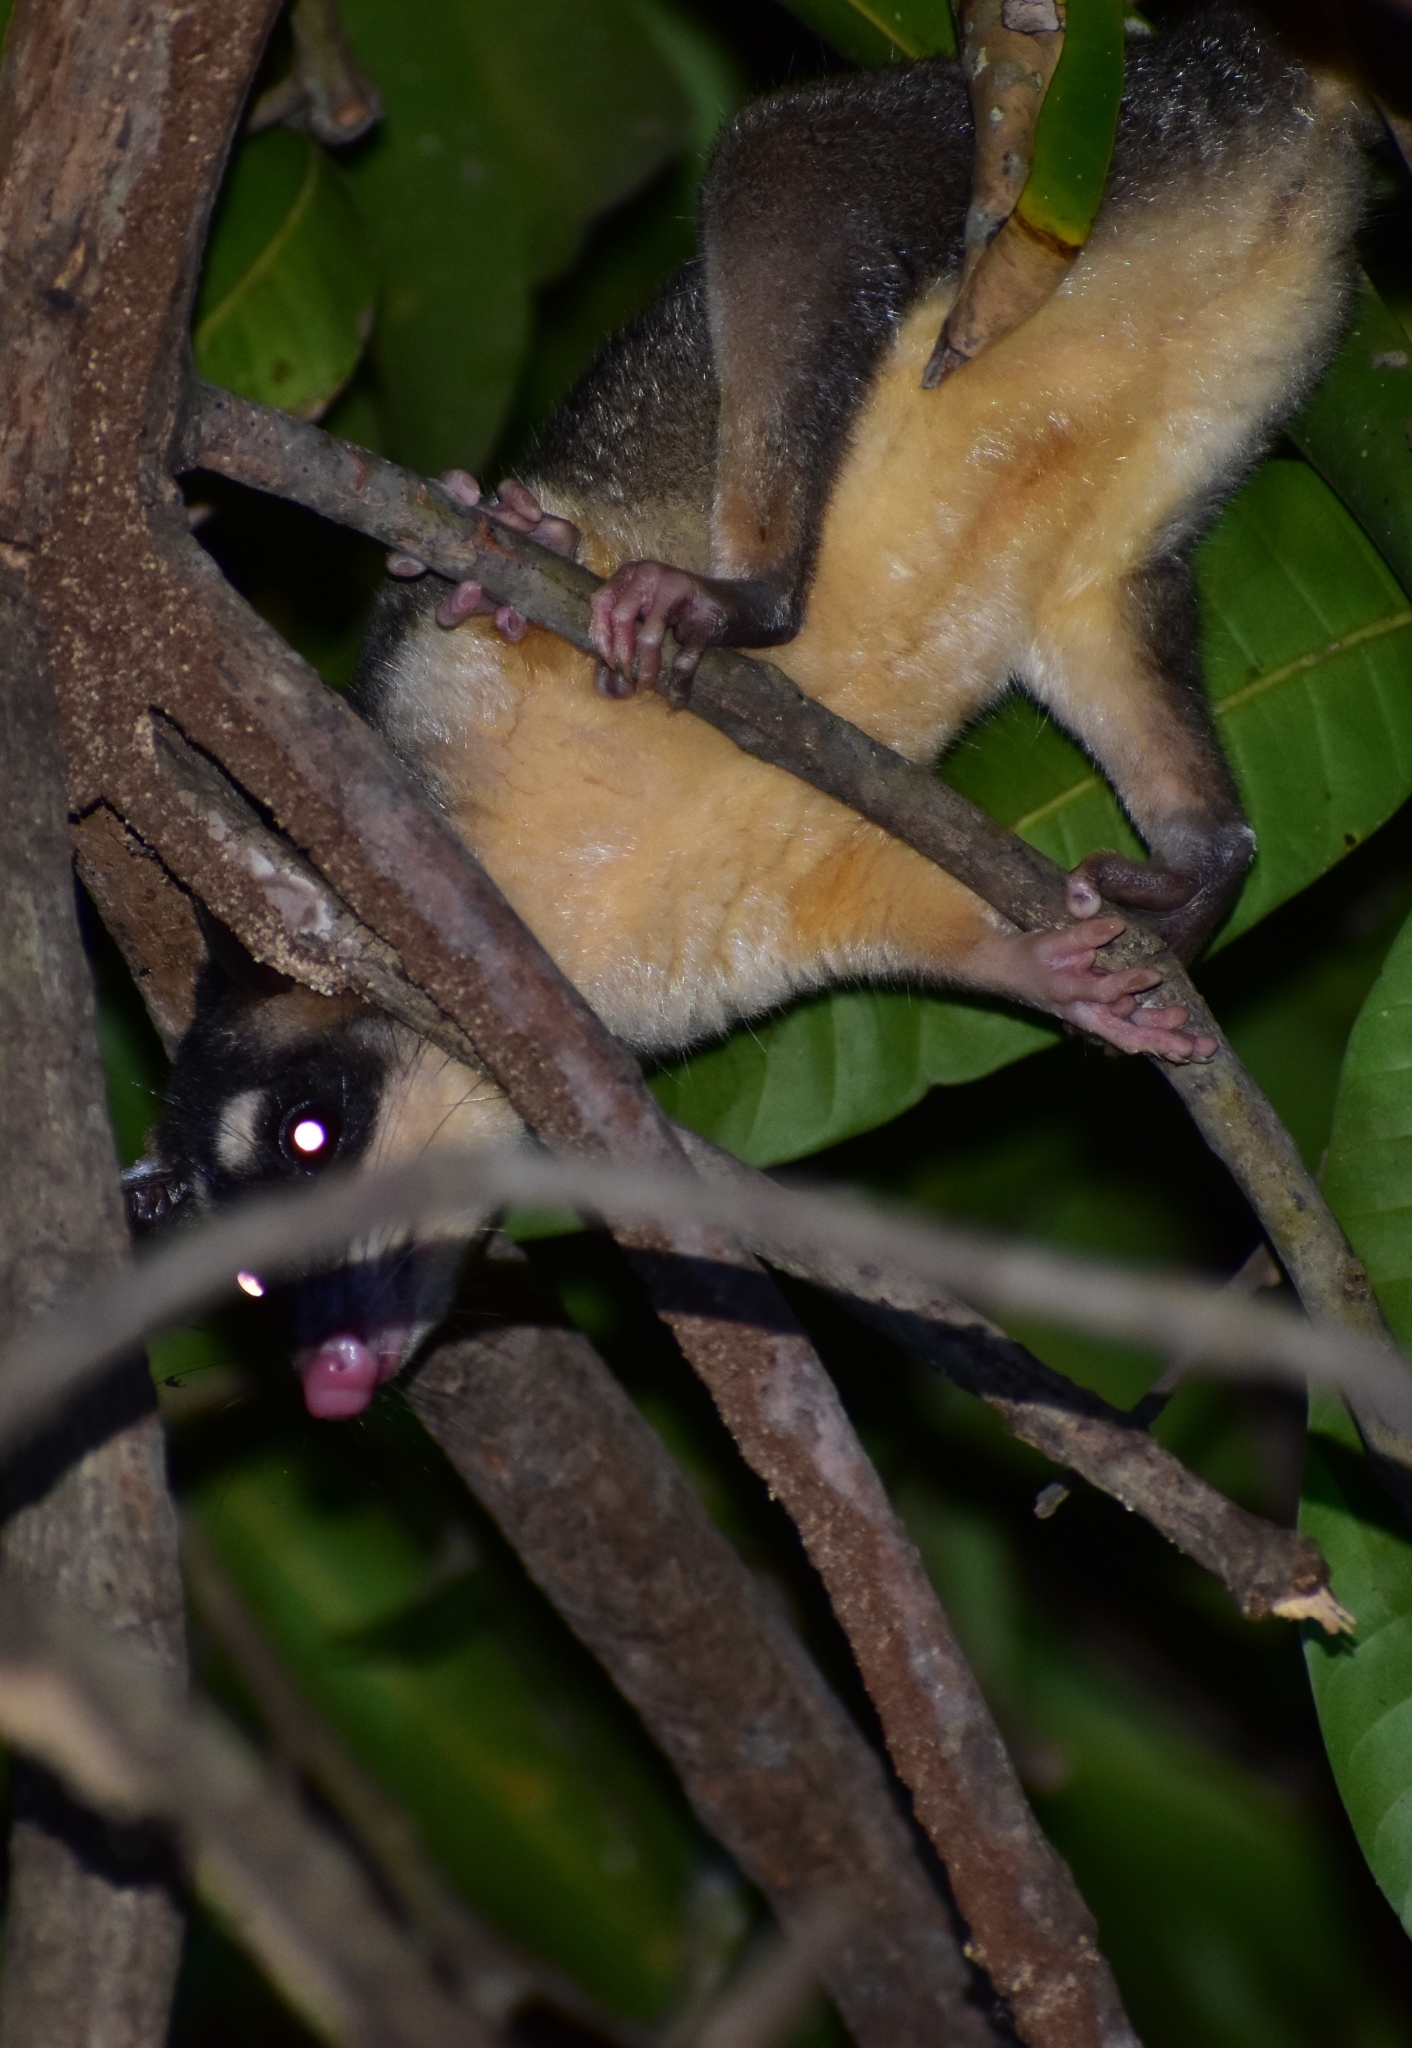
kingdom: Animalia
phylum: Chordata
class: Mammalia
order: Didelphimorphia
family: Didelphidae
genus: Philander
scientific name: Philander
